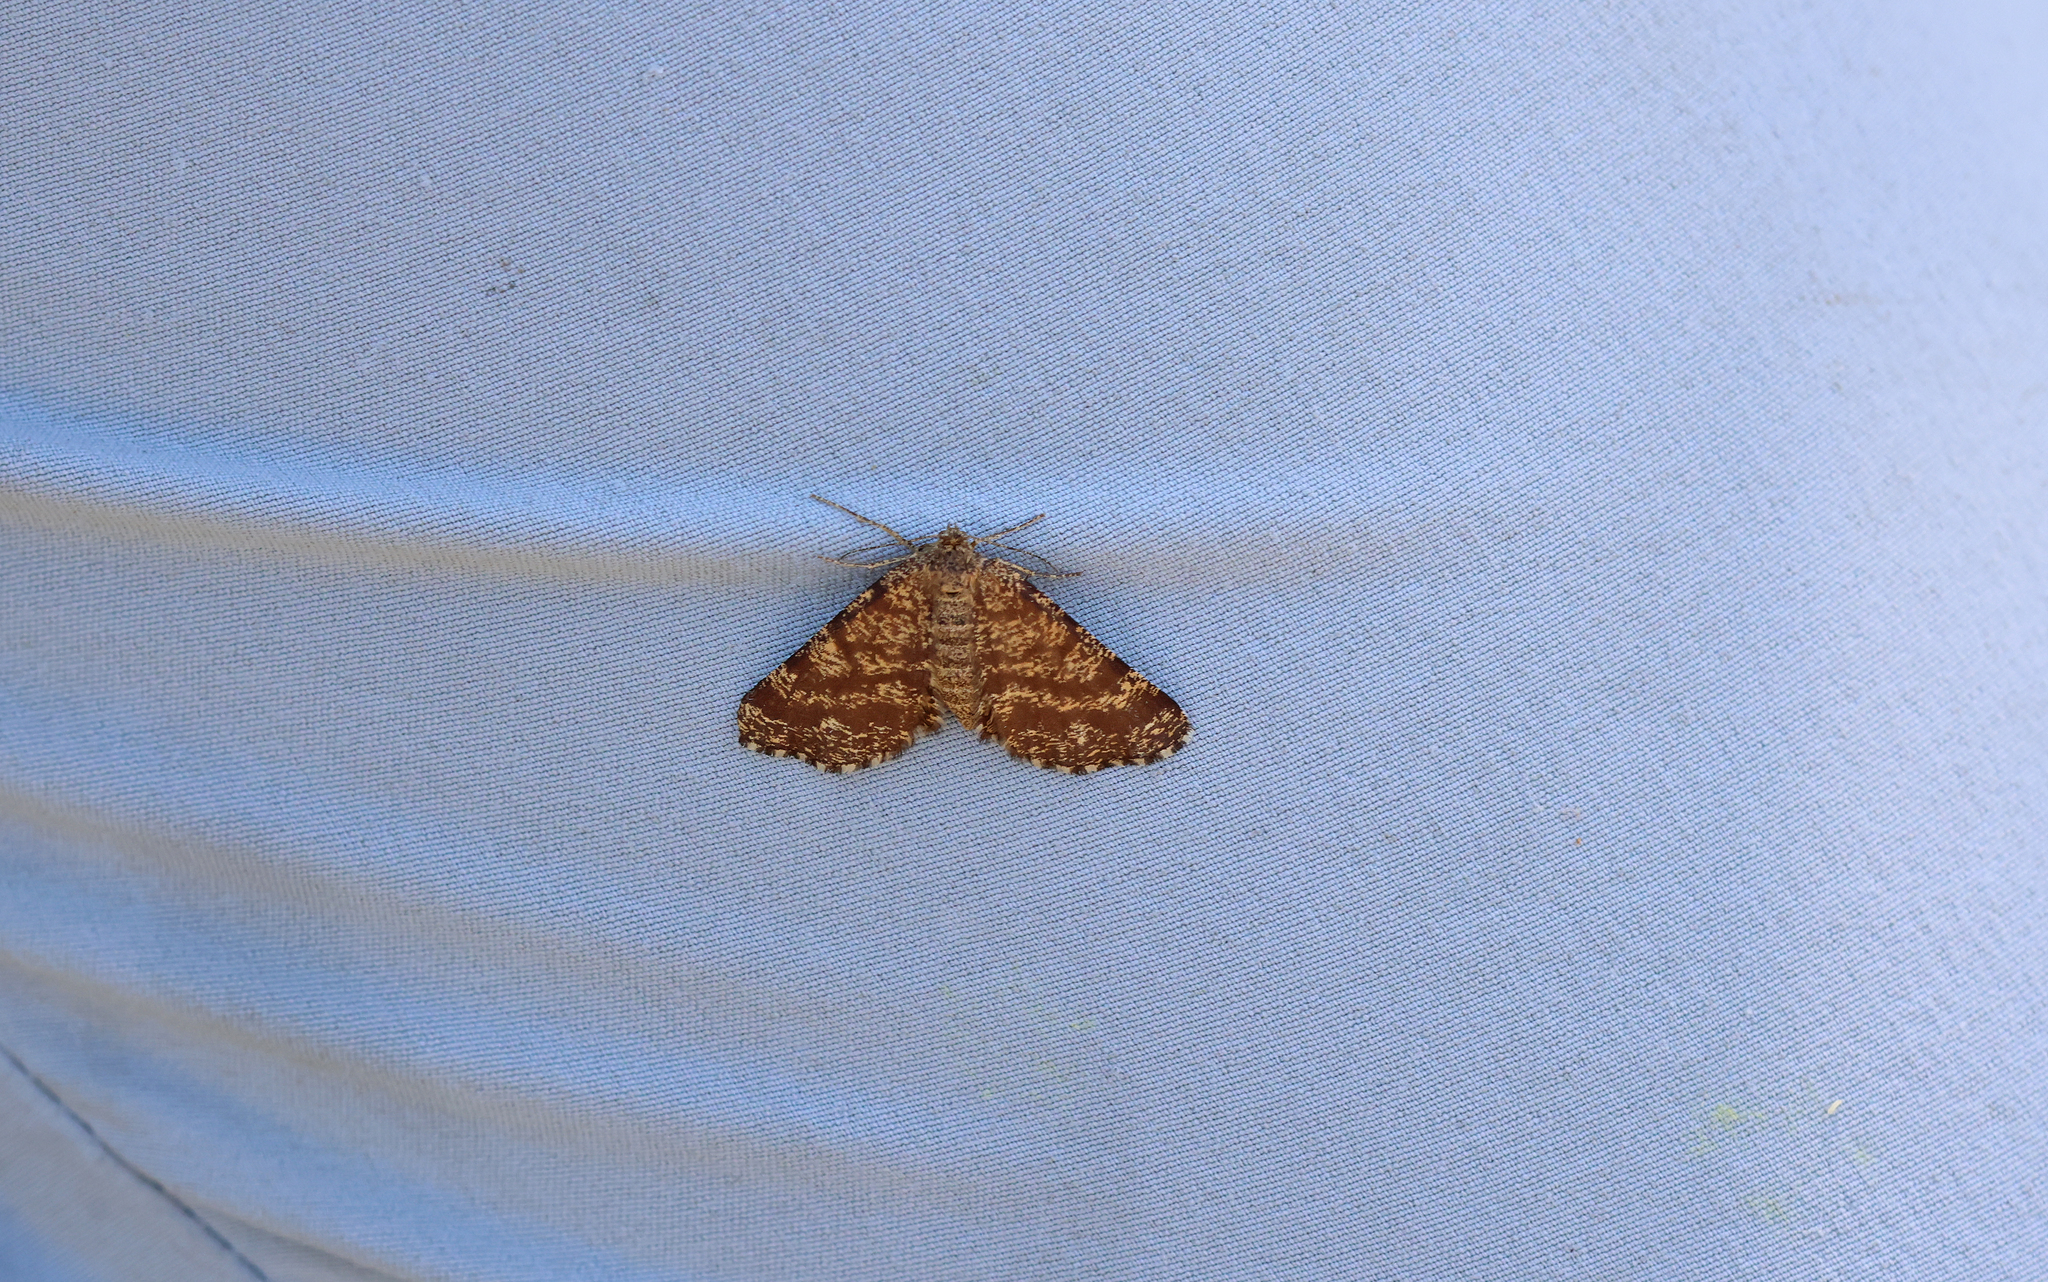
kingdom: Animalia
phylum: Arthropoda
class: Insecta
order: Lepidoptera
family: Geometridae
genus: Ematurga
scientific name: Ematurga atomaria
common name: Common heath
